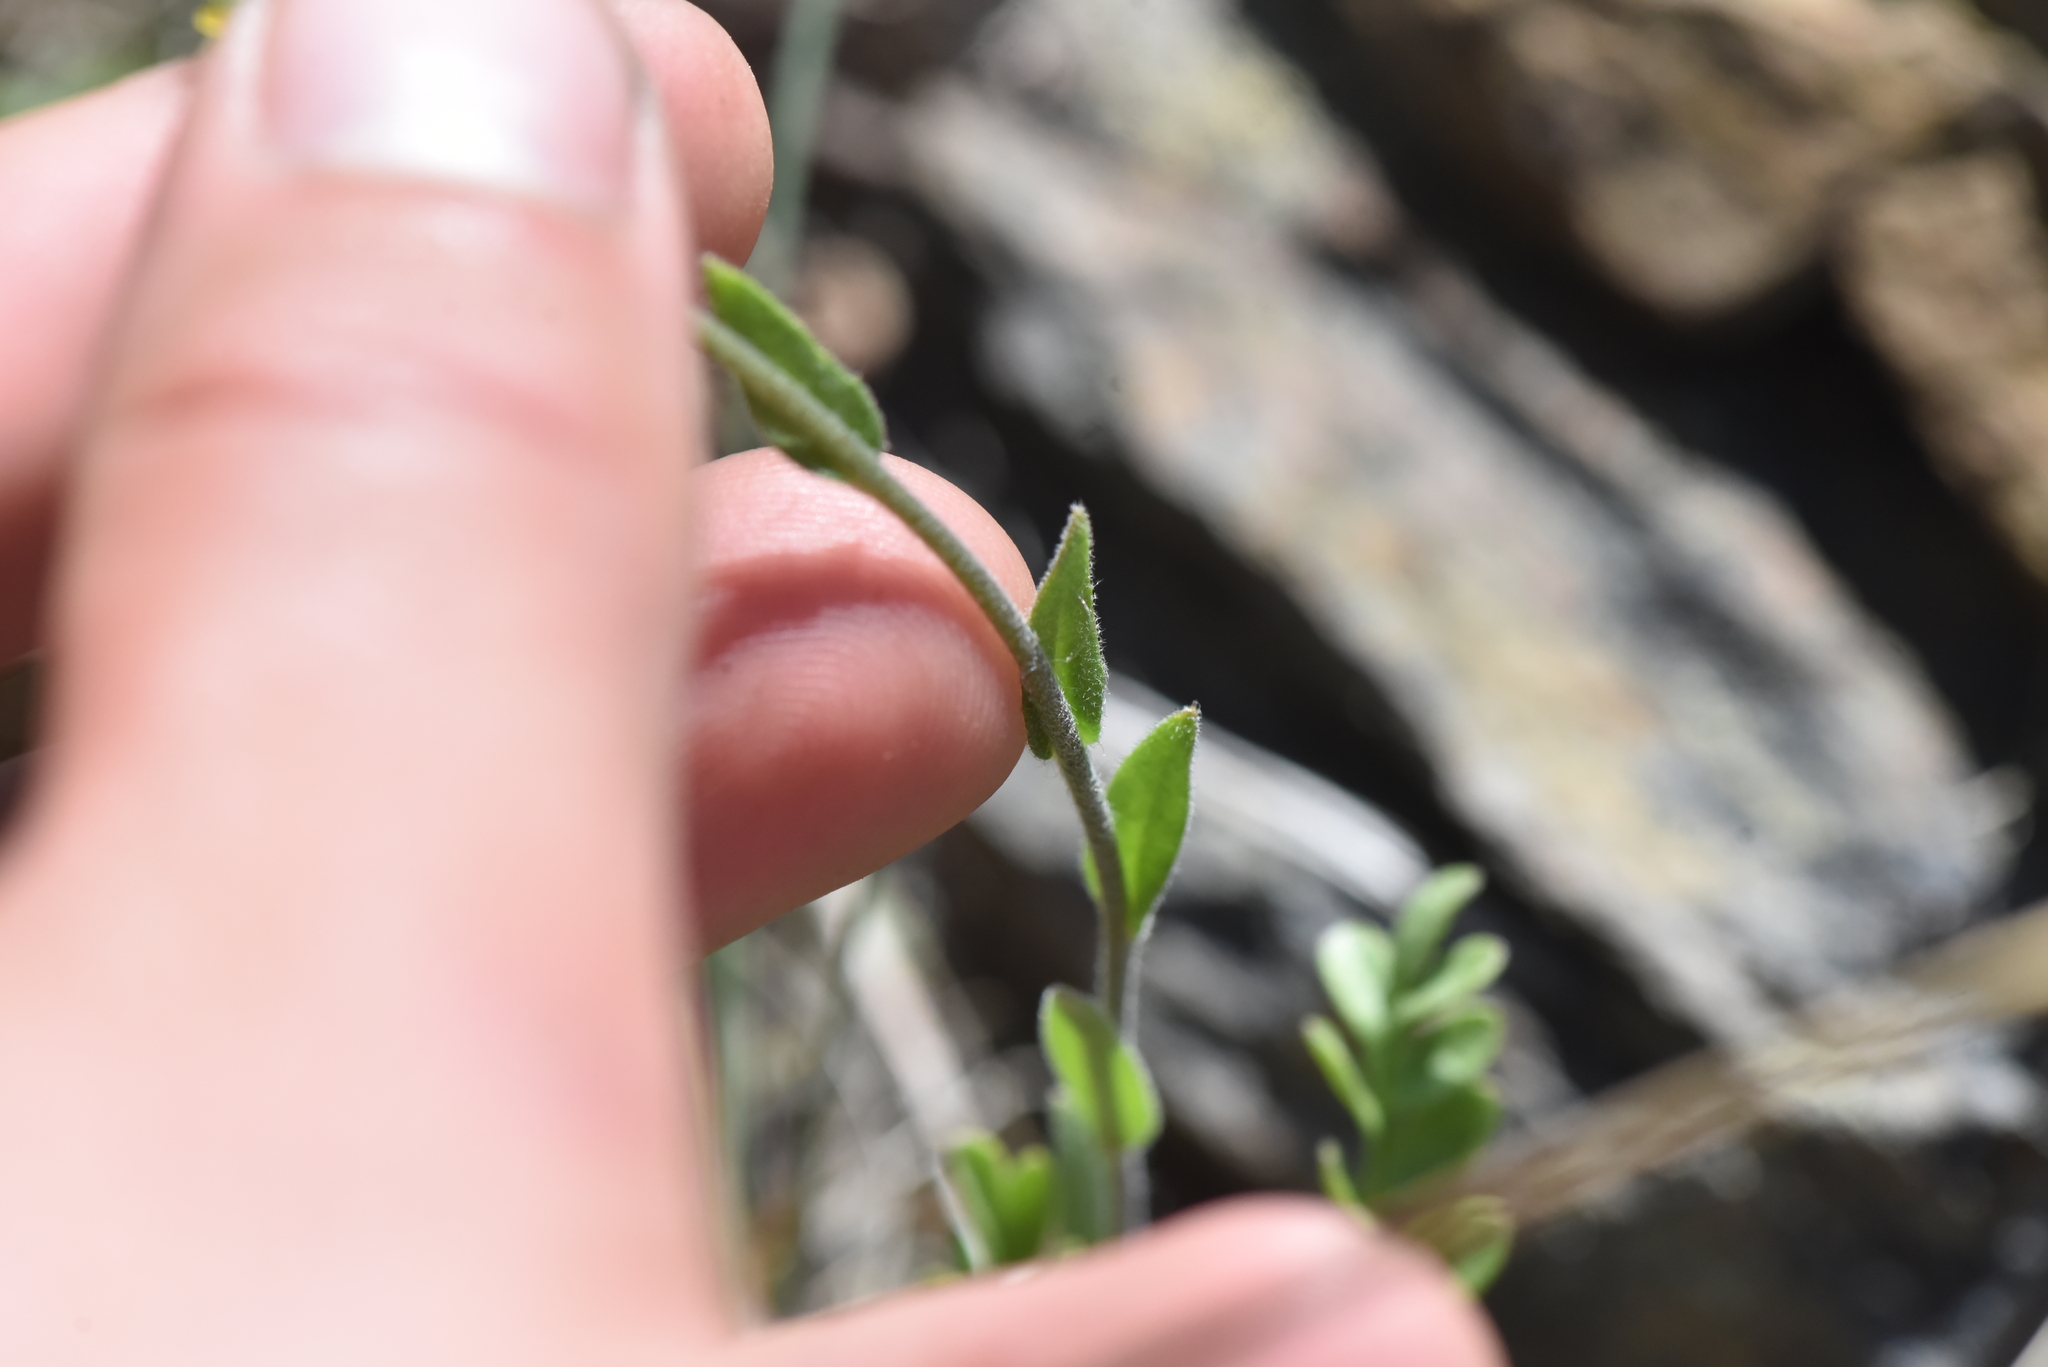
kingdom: Plantae
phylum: Tracheophyta
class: Magnoliopsida
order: Brassicales
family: Brassicaceae
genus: Draba
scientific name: Draba aurea
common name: Golden draba
